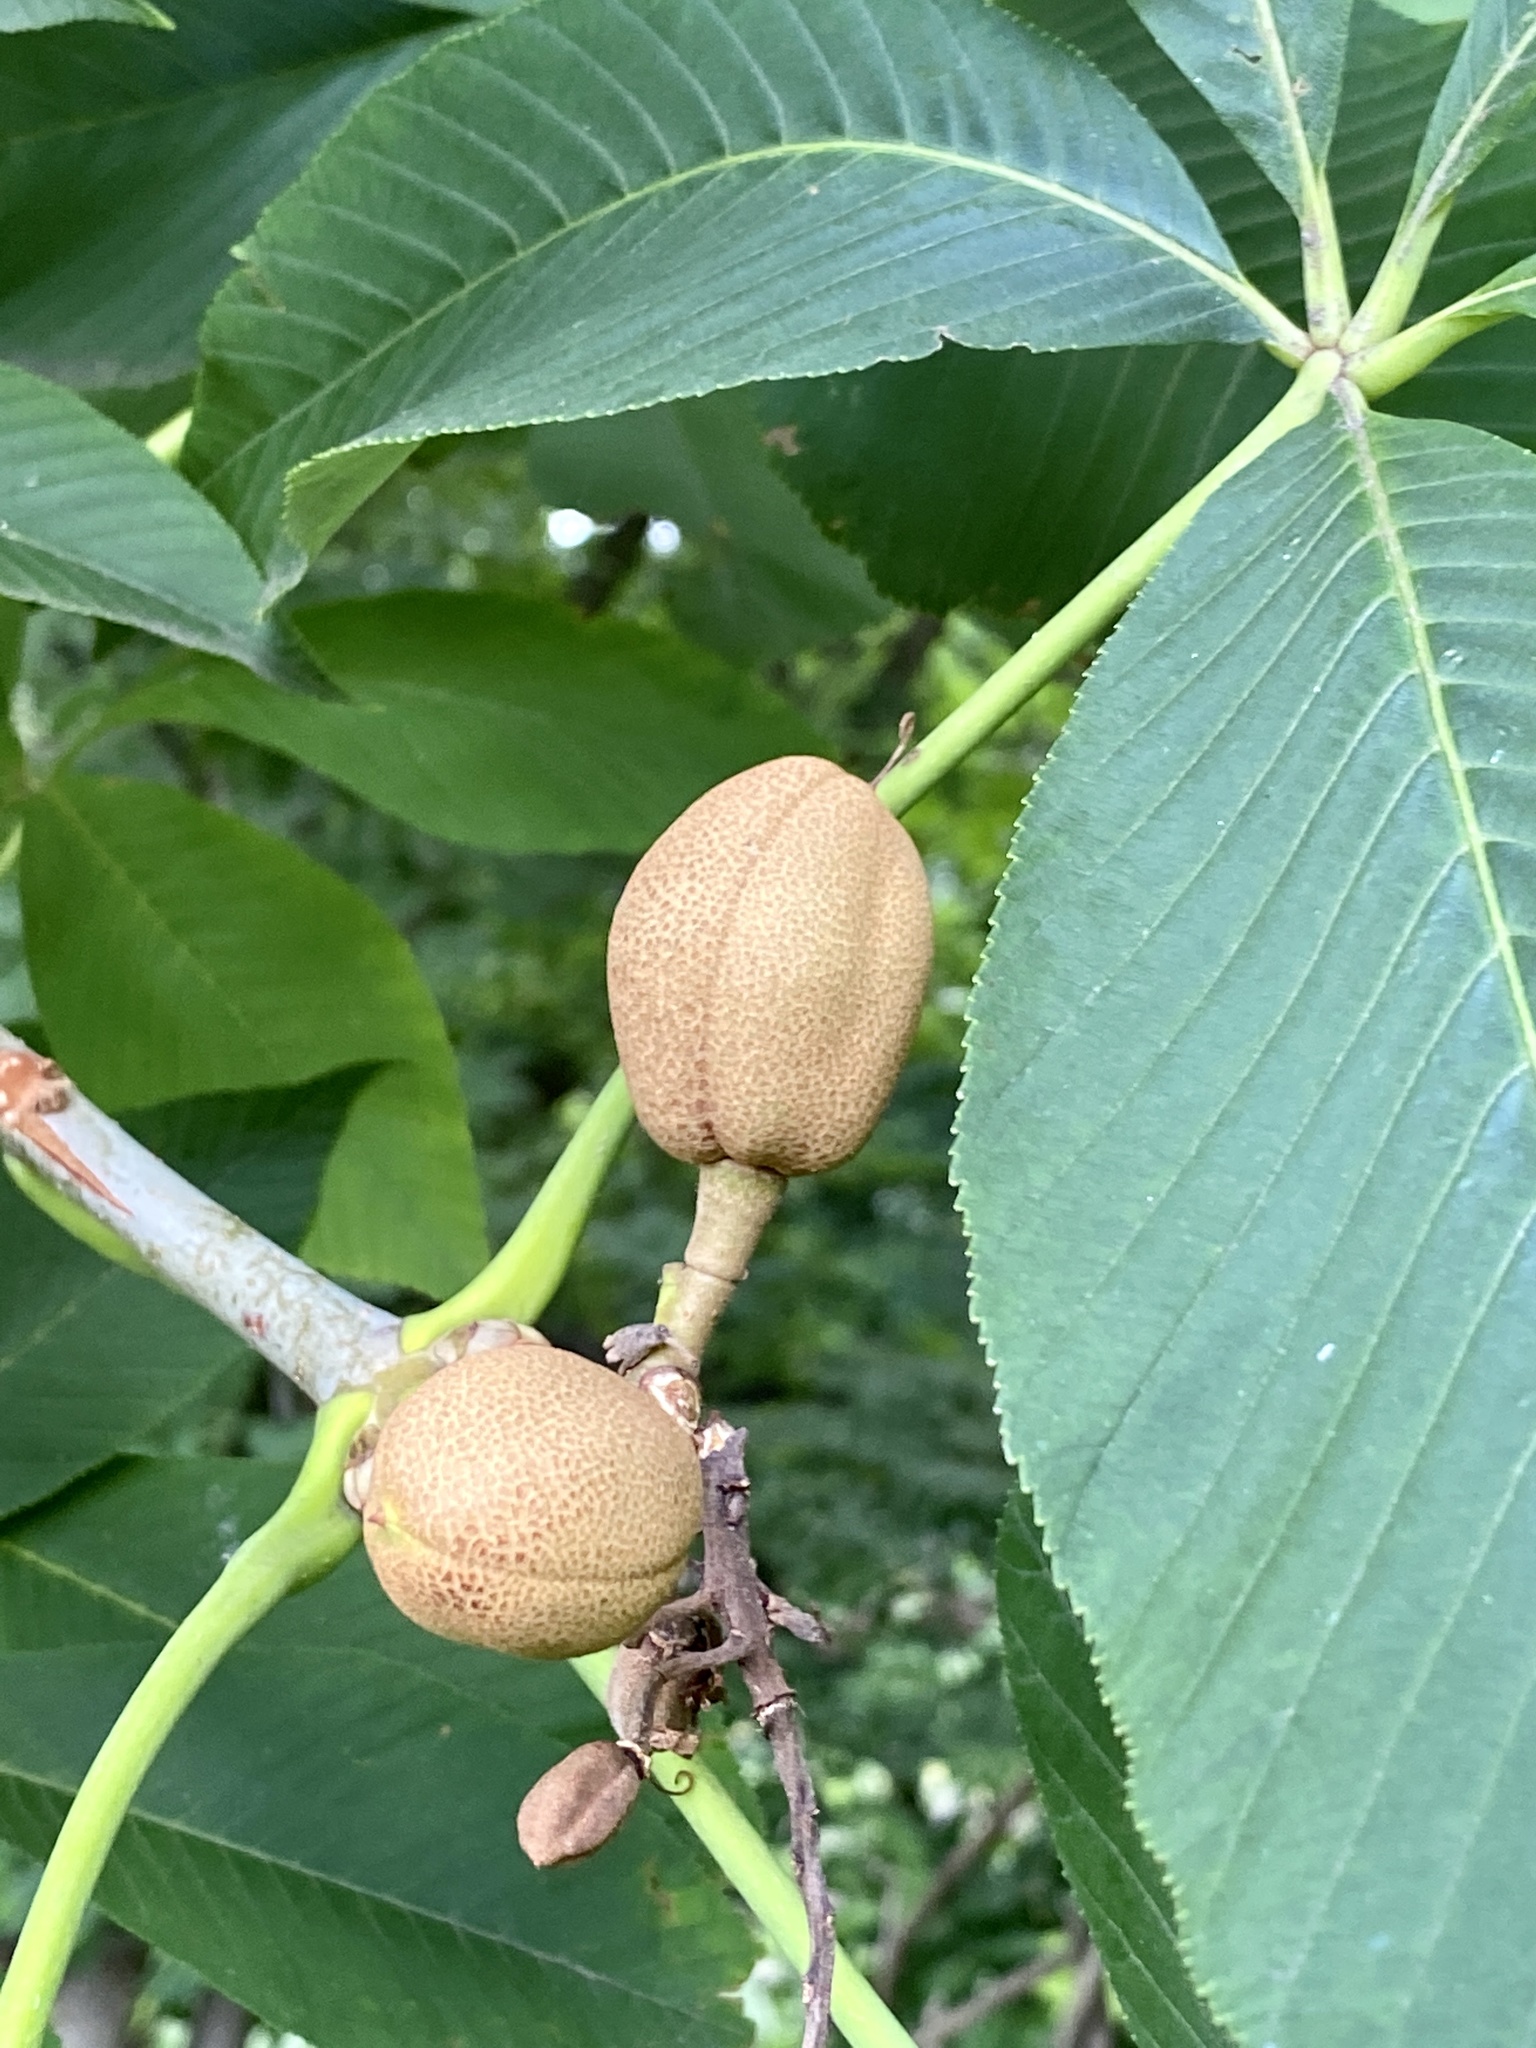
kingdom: Plantae
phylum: Tracheophyta
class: Magnoliopsida
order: Sapindales
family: Sapindaceae
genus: Aesculus
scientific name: Aesculus flava
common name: Yellow buckeye
